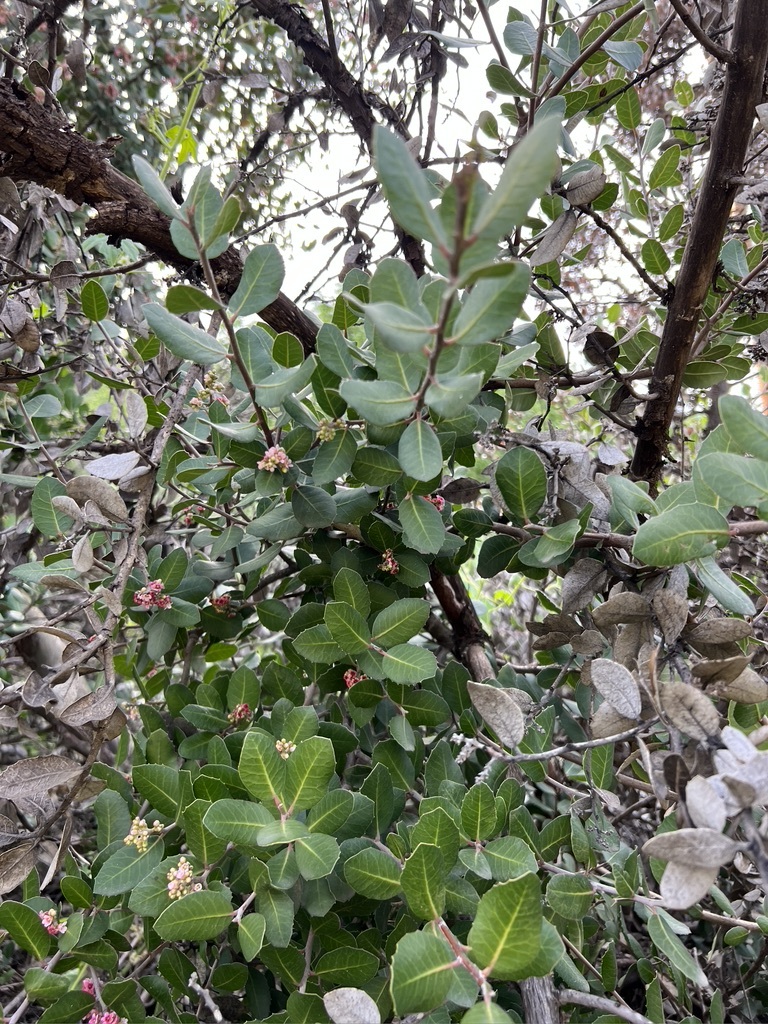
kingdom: Plantae
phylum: Tracheophyta
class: Magnoliopsida
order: Sapindales
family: Anacardiaceae
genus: Rhus
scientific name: Rhus integrifolia
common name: Lemonade sumac
